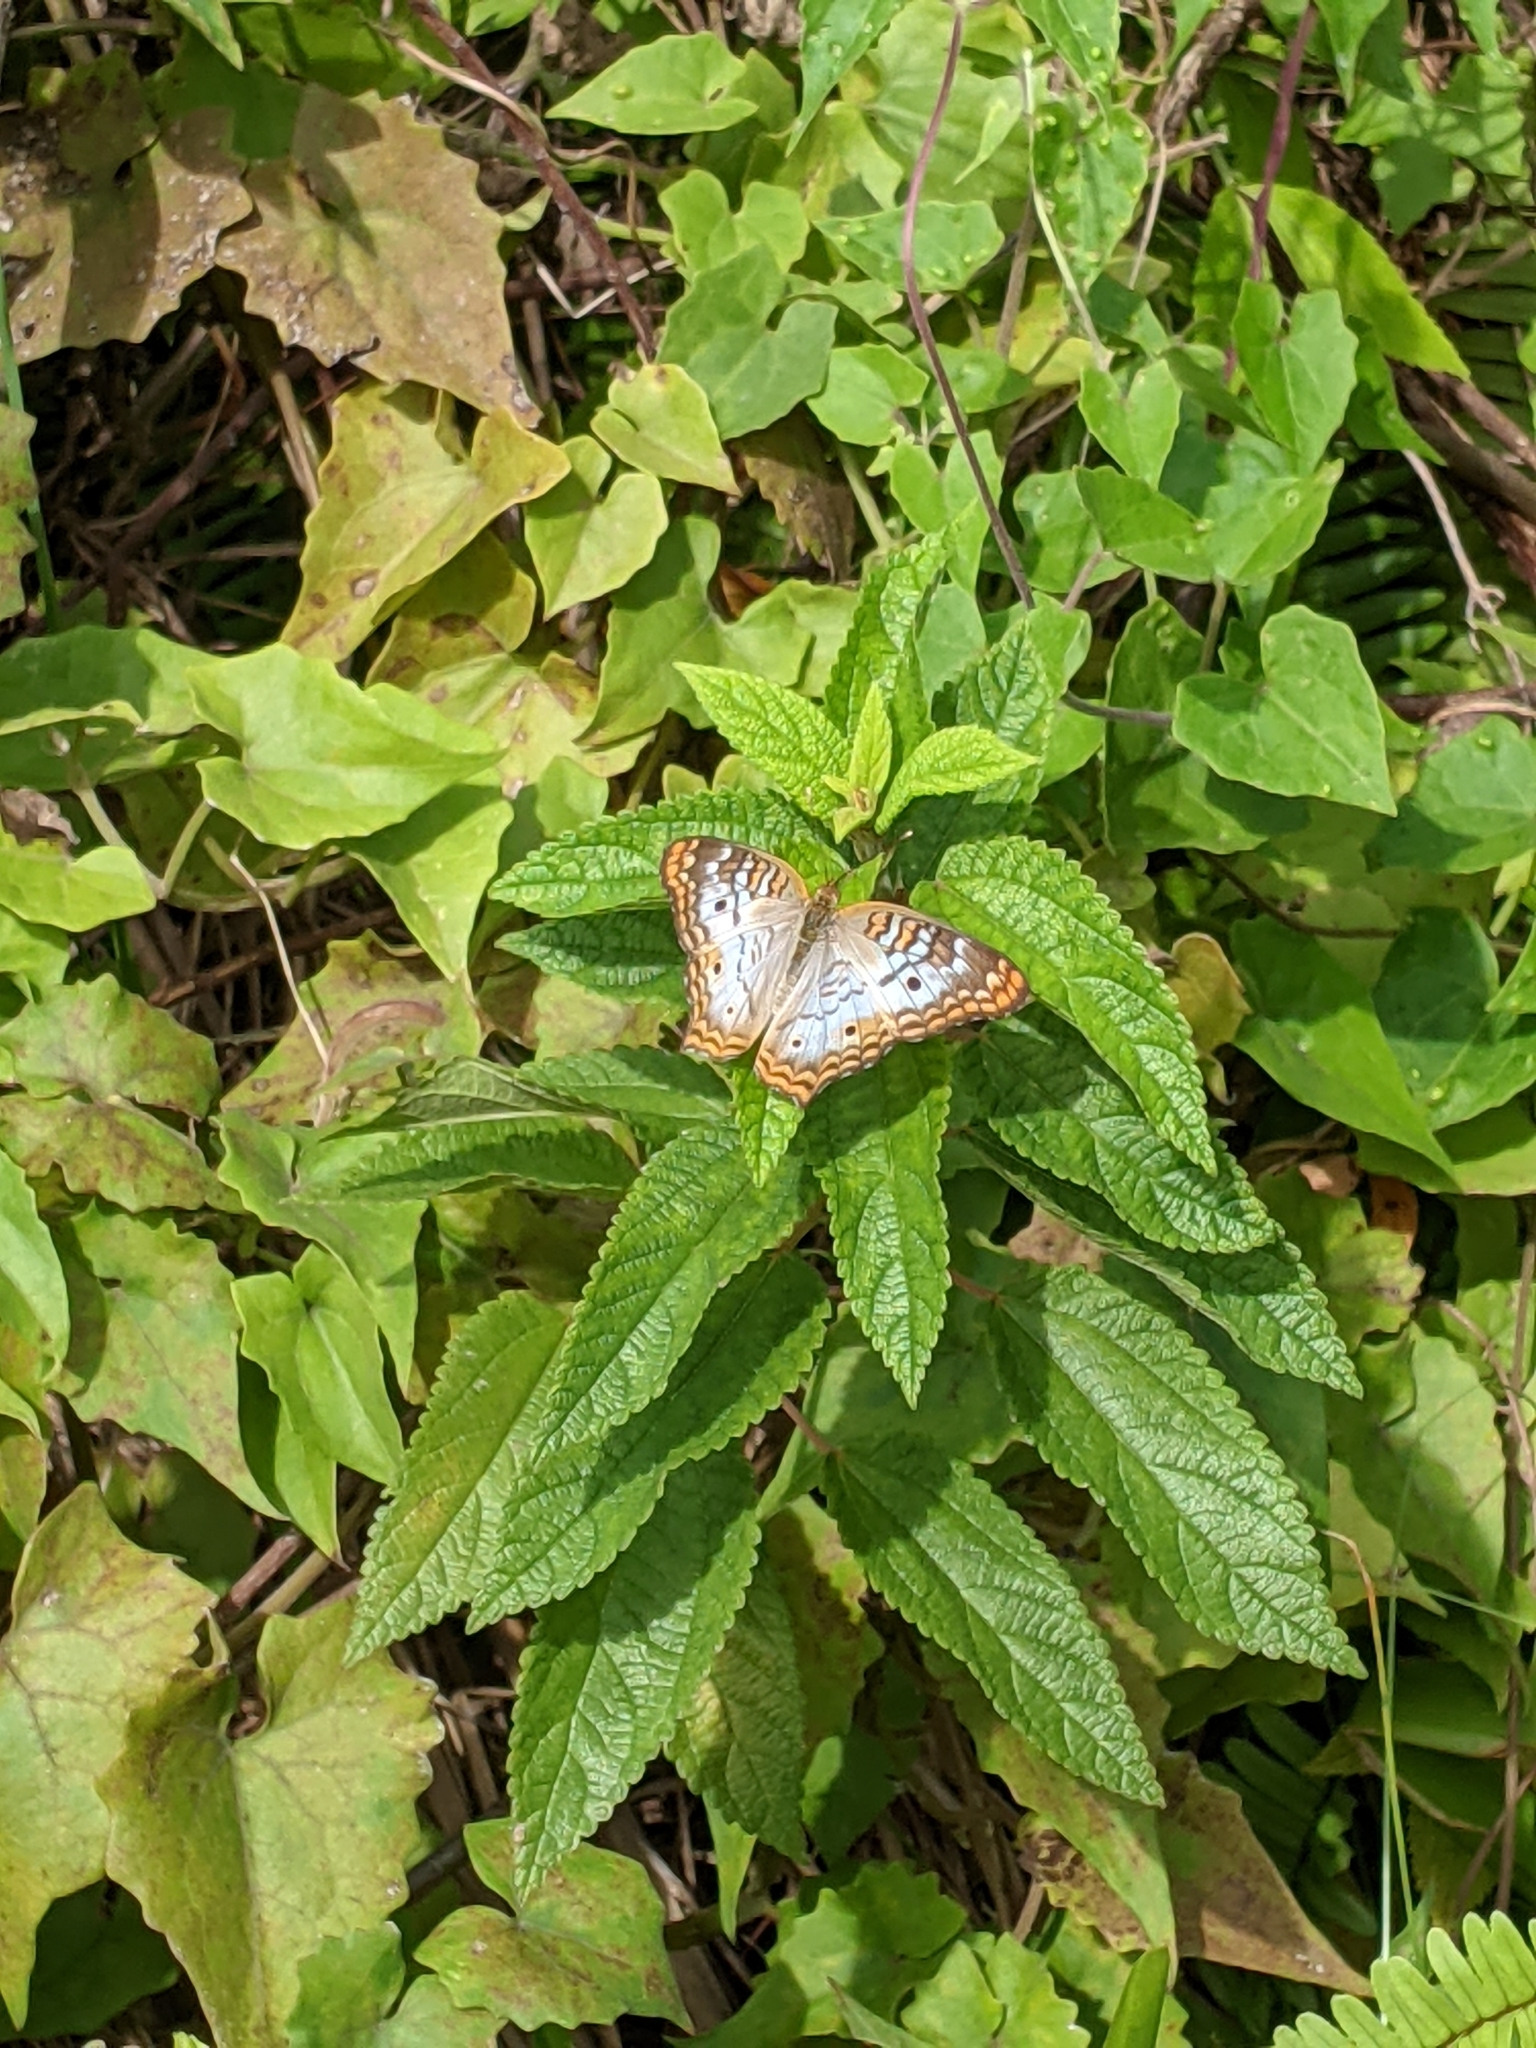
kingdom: Animalia
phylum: Arthropoda
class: Insecta
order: Lepidoptera
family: Nymphalidae
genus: Anartia
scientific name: Anartia jatrophae
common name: White peacock
